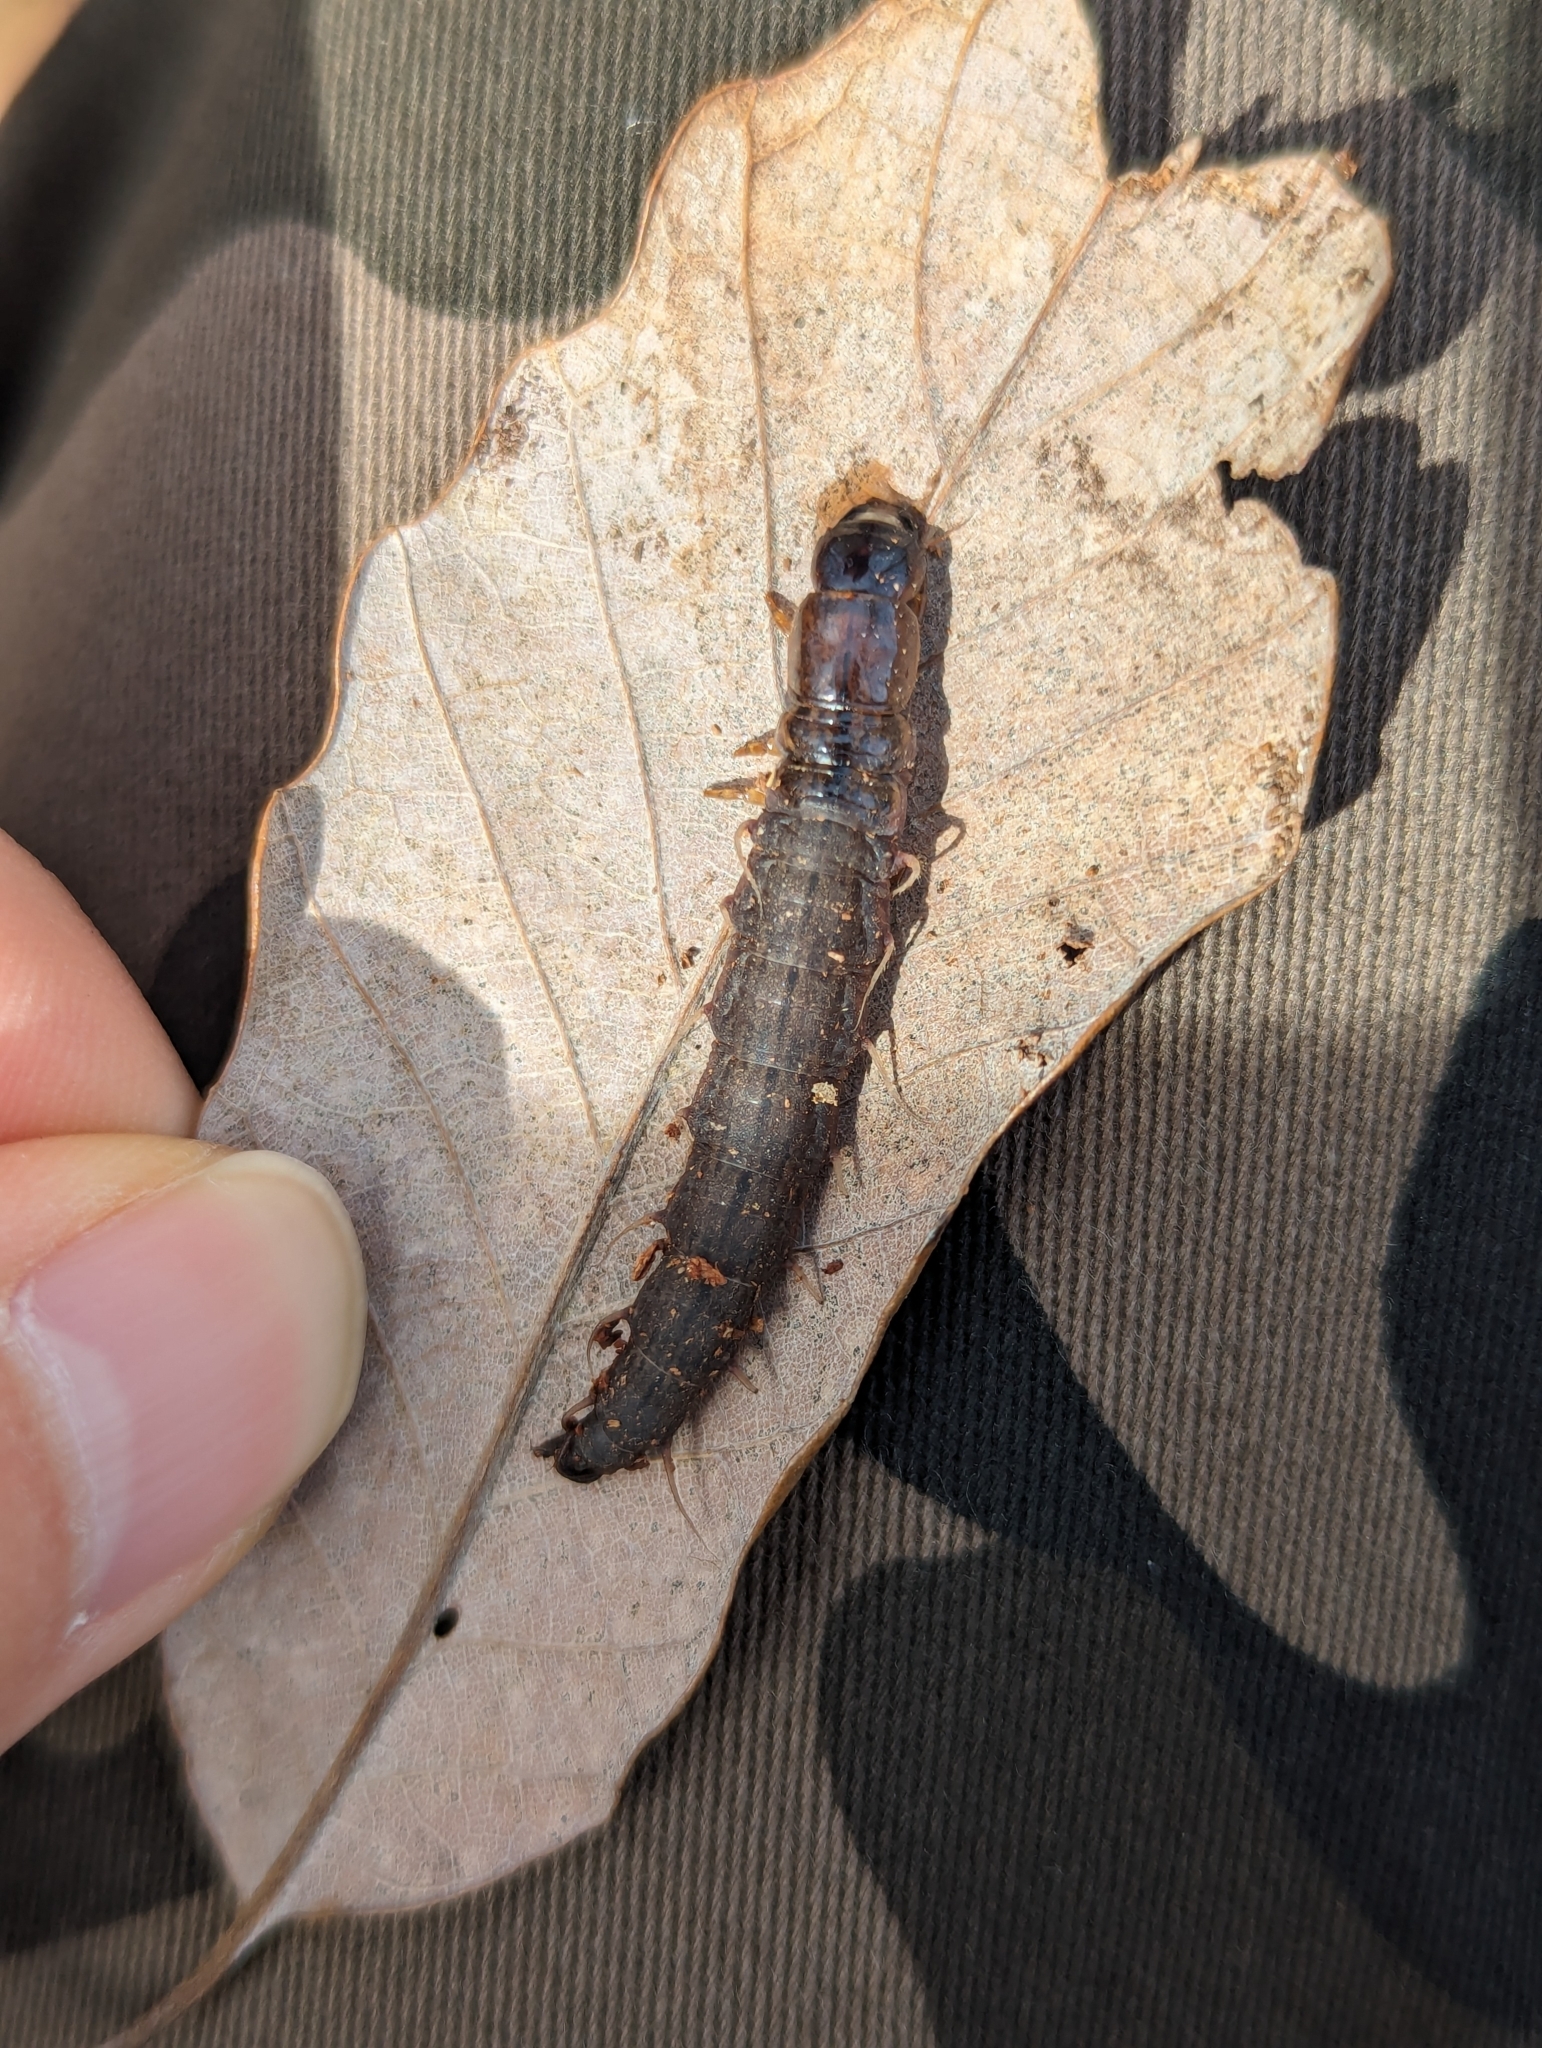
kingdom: Animalia
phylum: Arthropoda
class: Insecta
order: Megaloptera
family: Corydalidae
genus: Chauliodes
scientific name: Chauliodes rastricornis
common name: Spring fishfly
